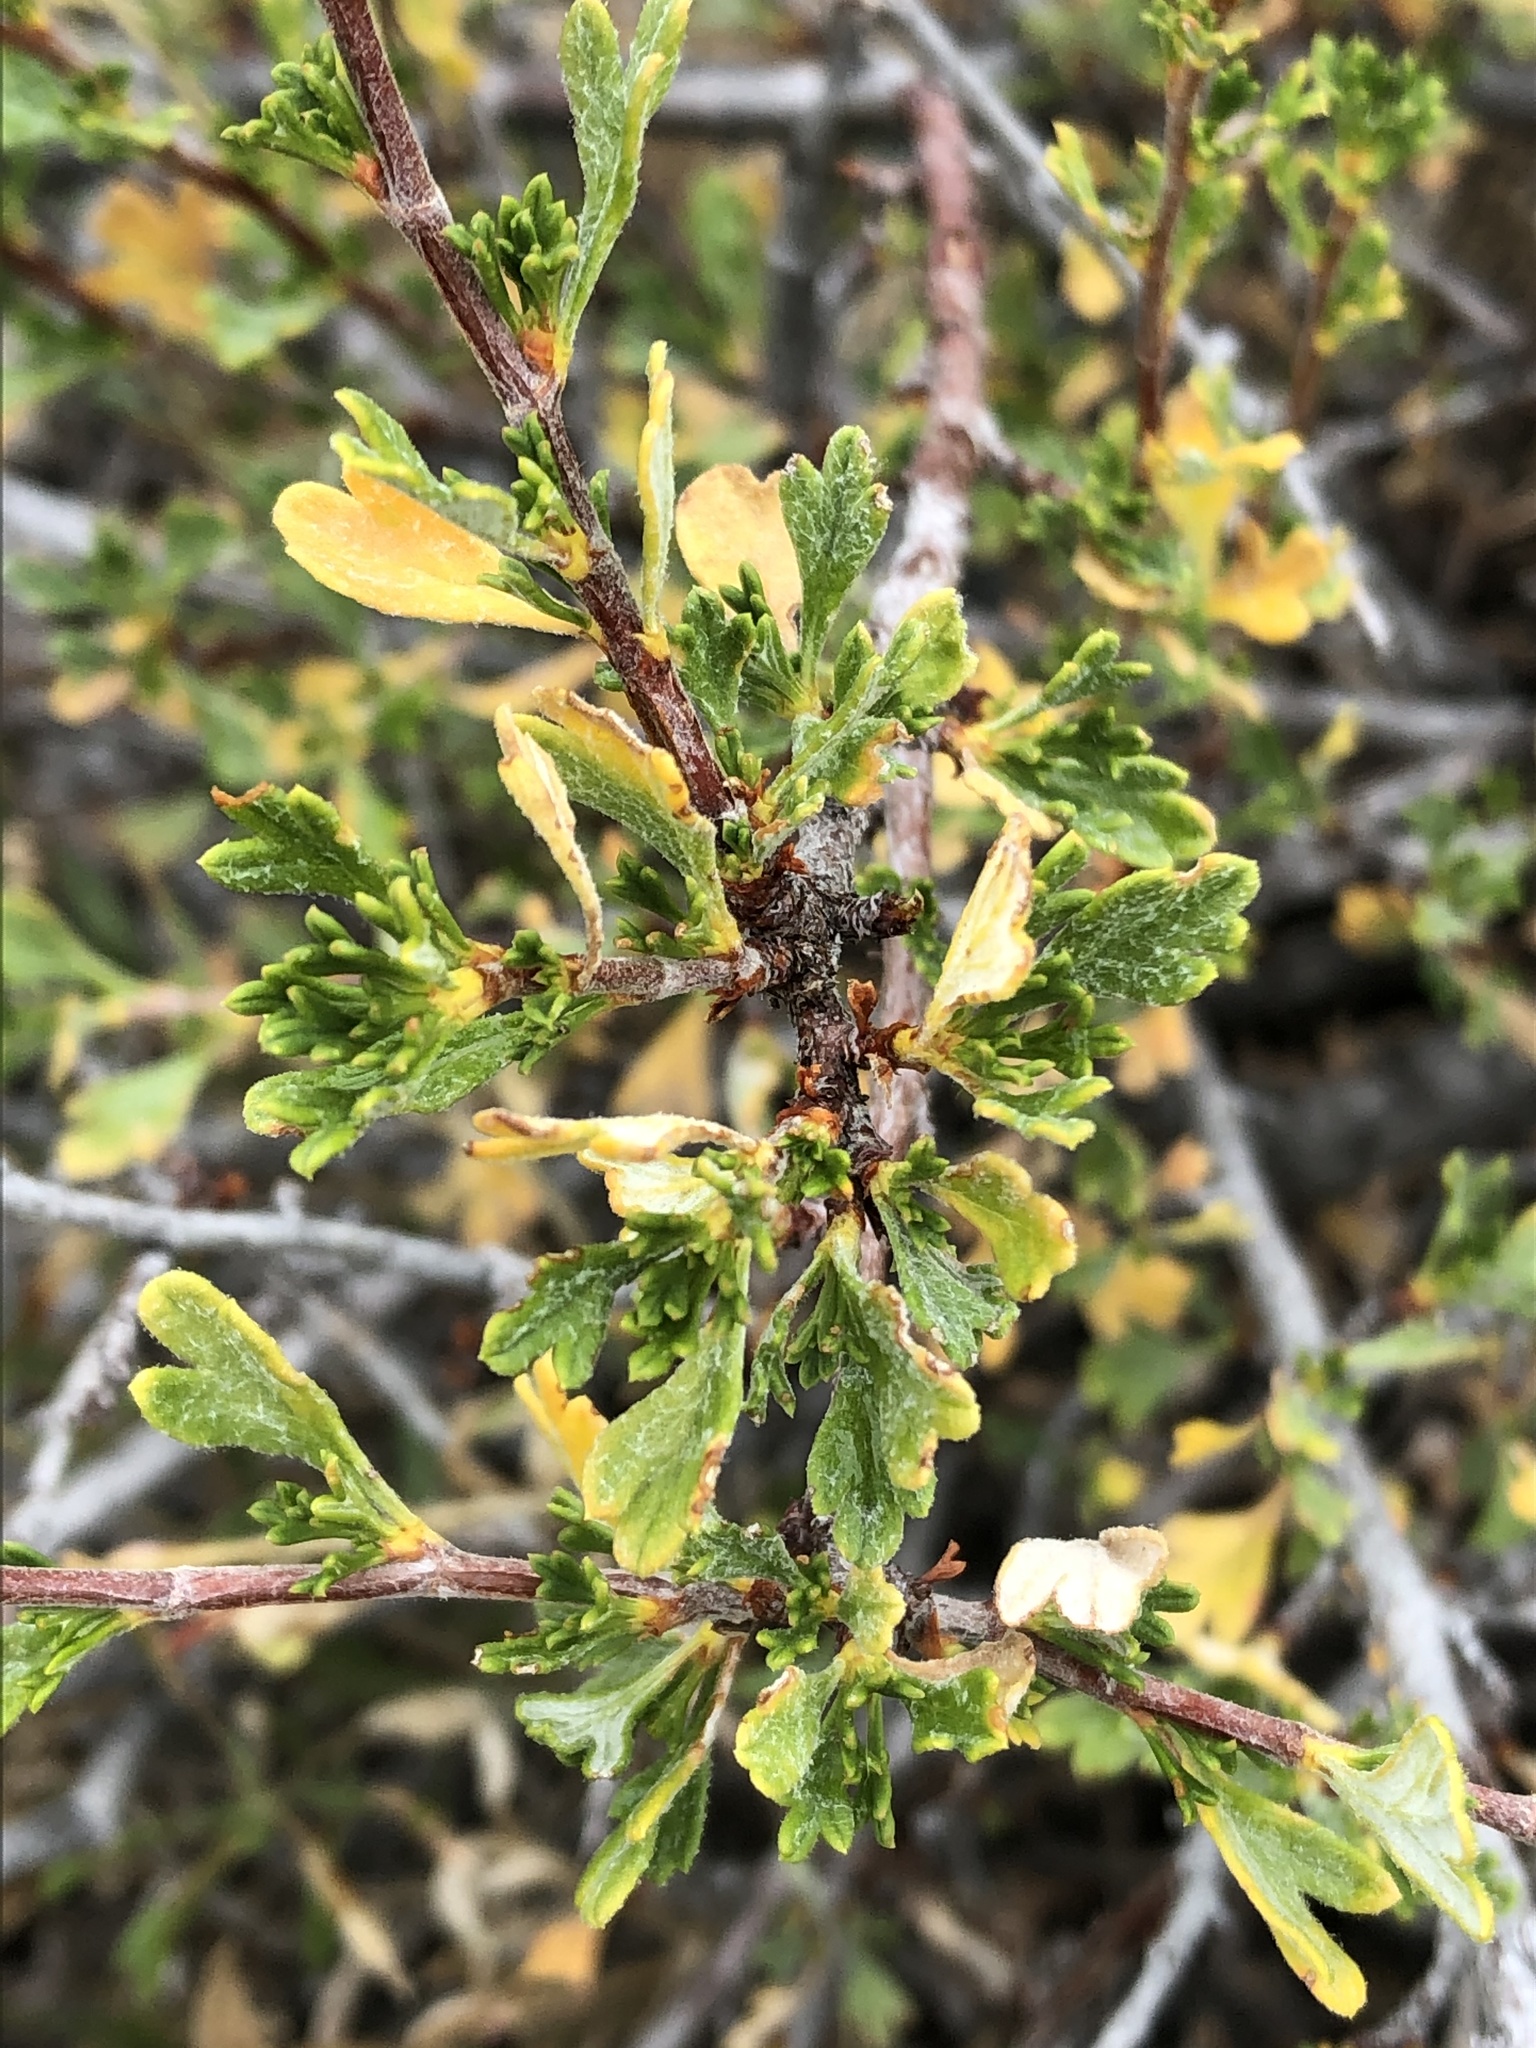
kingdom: Plantae
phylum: Tracheophyta
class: Magnoliopsida
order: Rosales
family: Rosaceae
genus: Purshia
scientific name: Purshia tridentata
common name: Antelope bitterbrush
